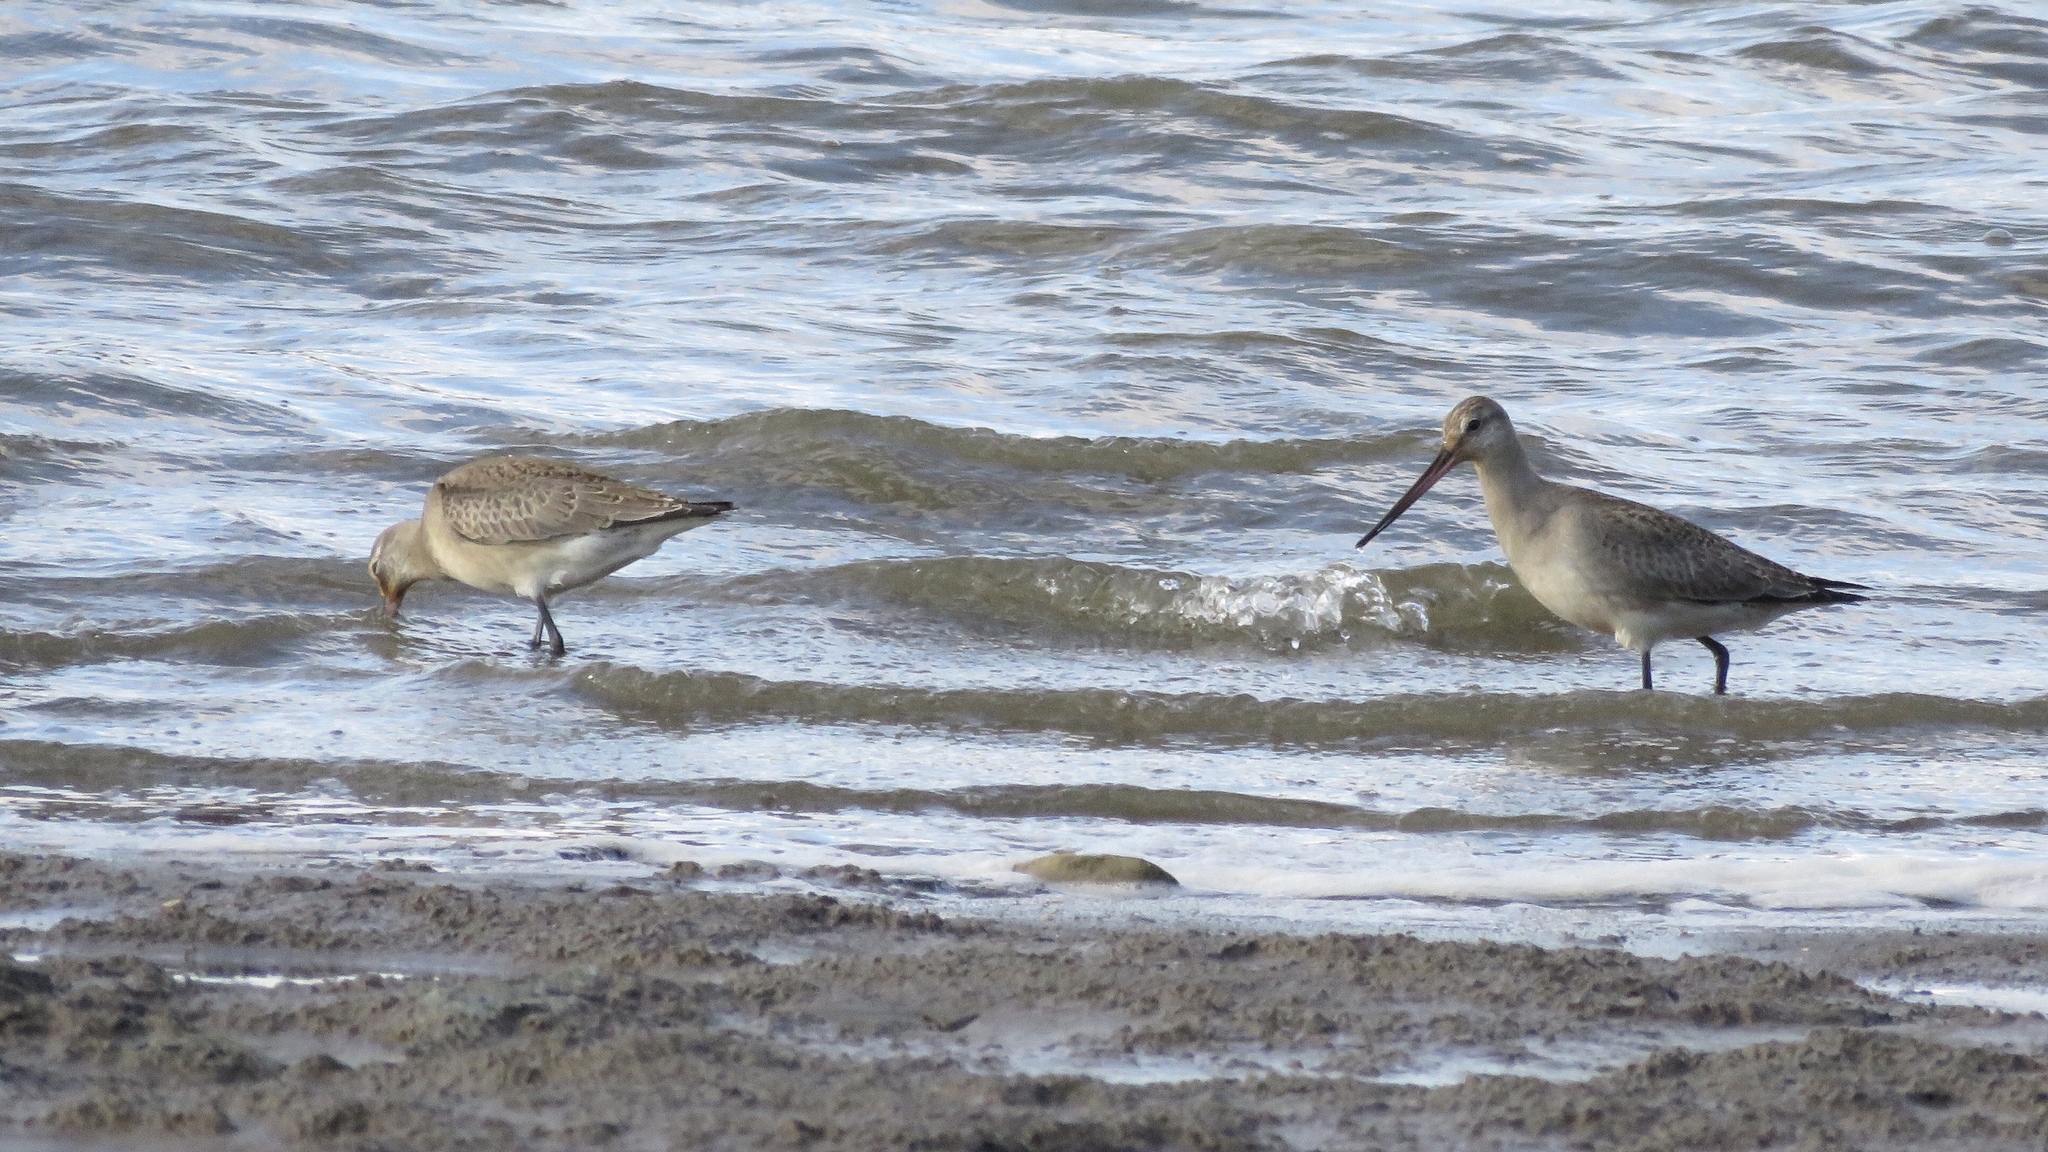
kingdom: Animalia
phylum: Chordata
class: Aves
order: Charadriiformes
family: Scolopacidae
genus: Limosa
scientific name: Limosa haemastica
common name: Hudsonian godwit
